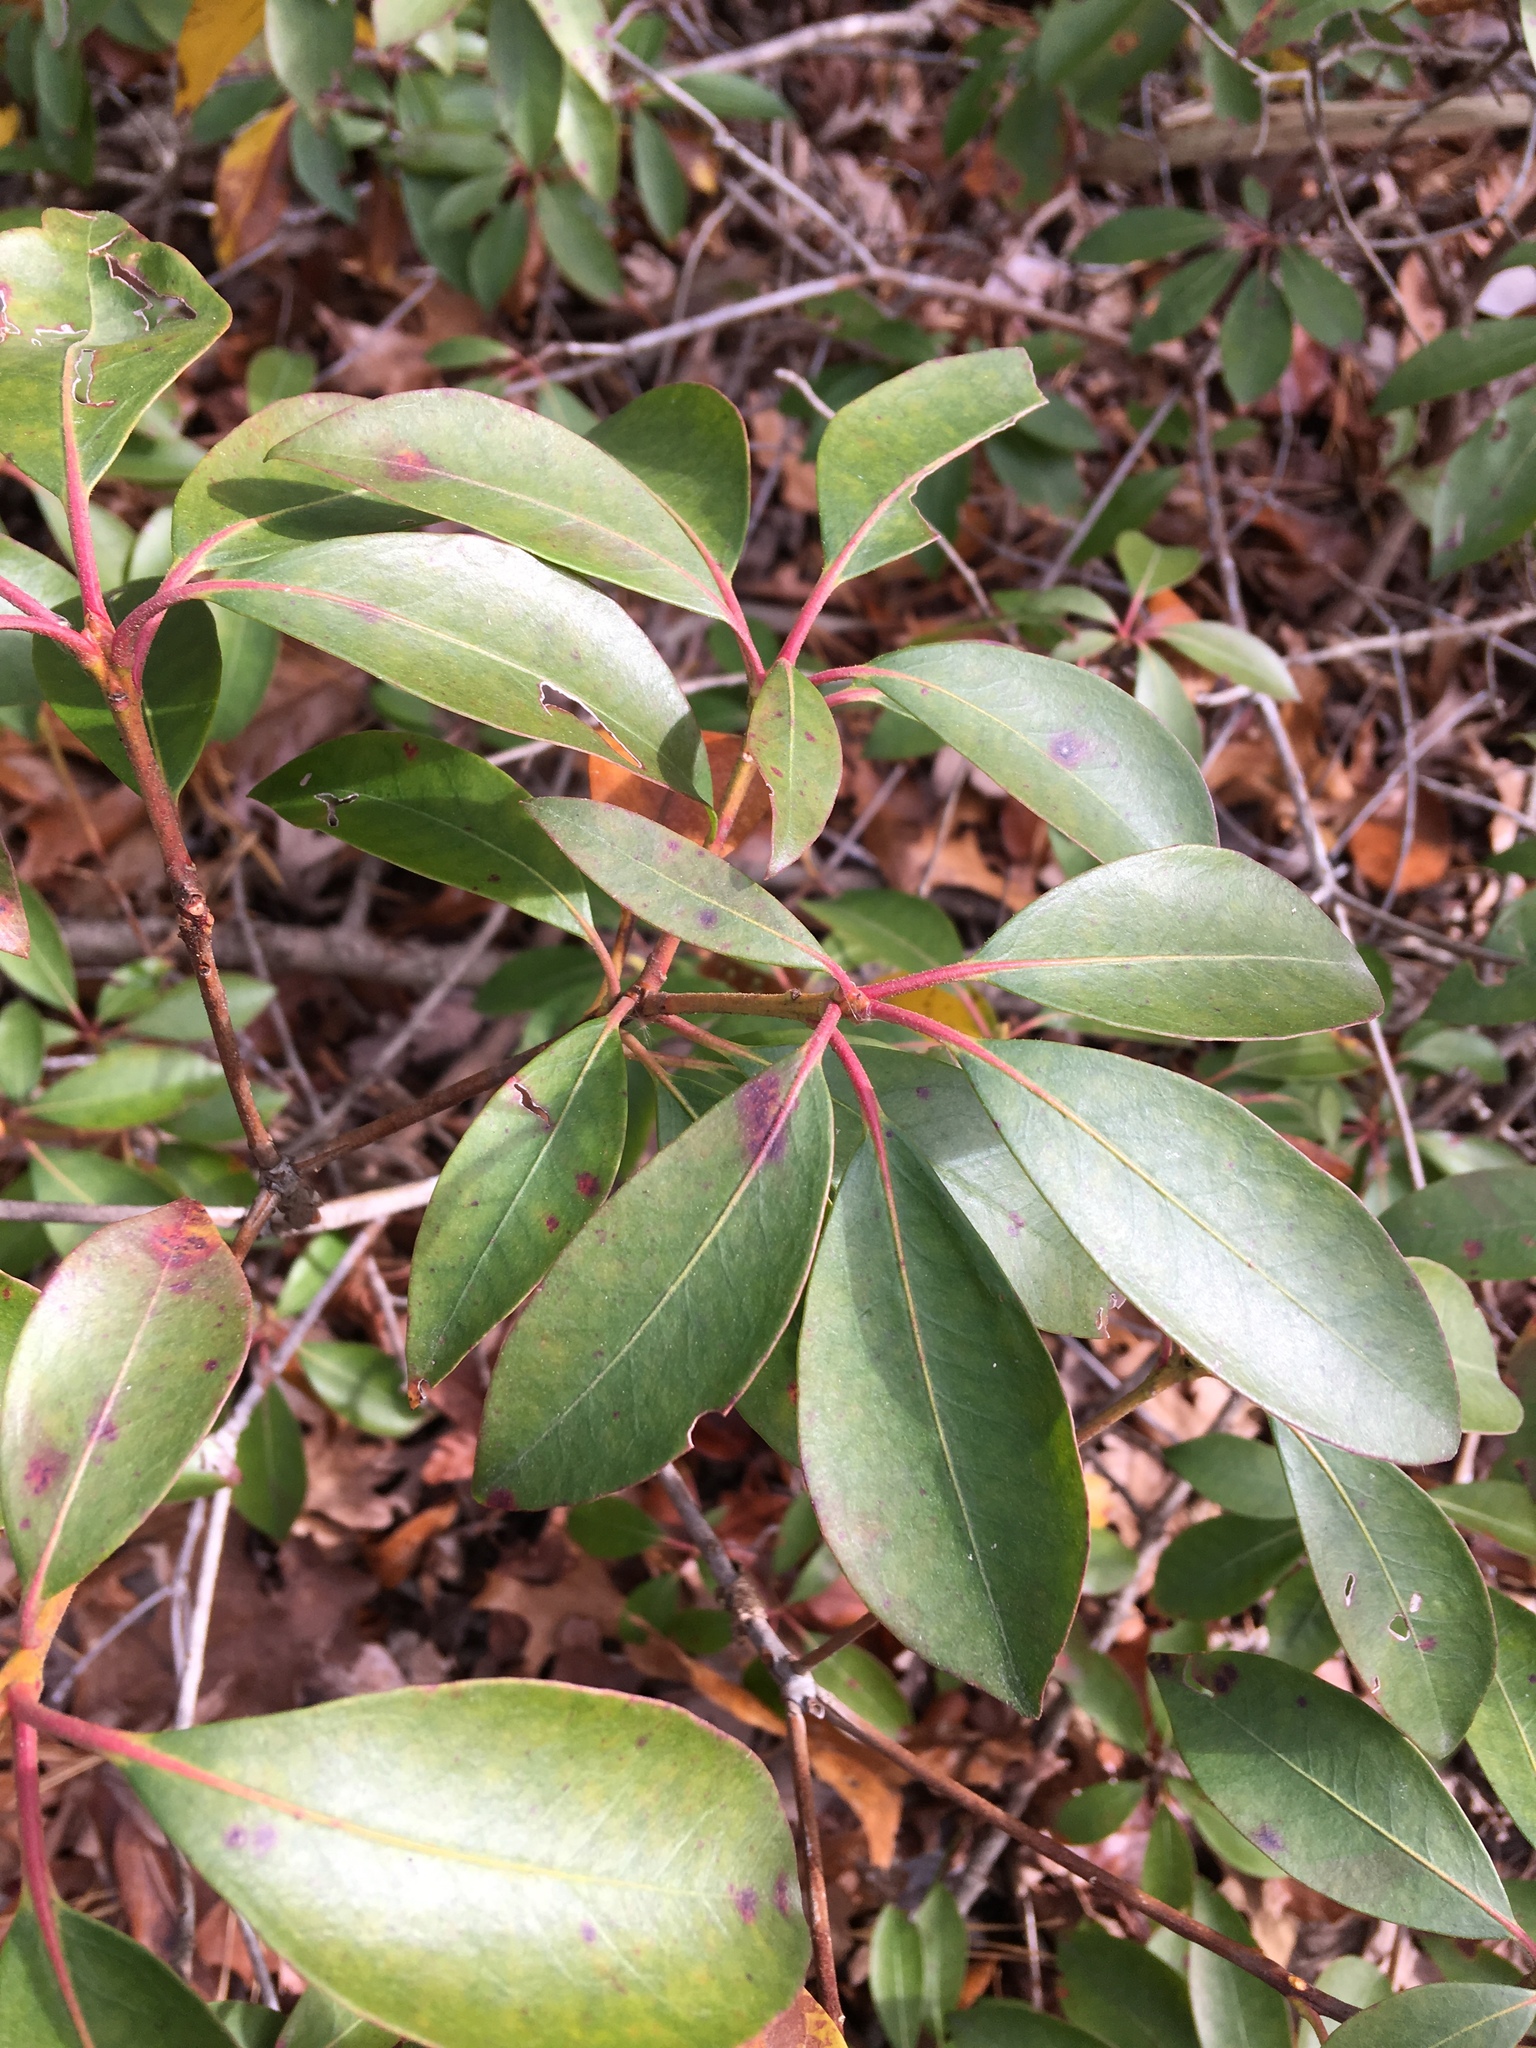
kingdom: Plantae
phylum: Tracheophyta
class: Magnoliopsida
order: Ericales
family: Ericaceae
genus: Kalmia
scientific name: Kalmia latifolia
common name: Mountain-laurel
